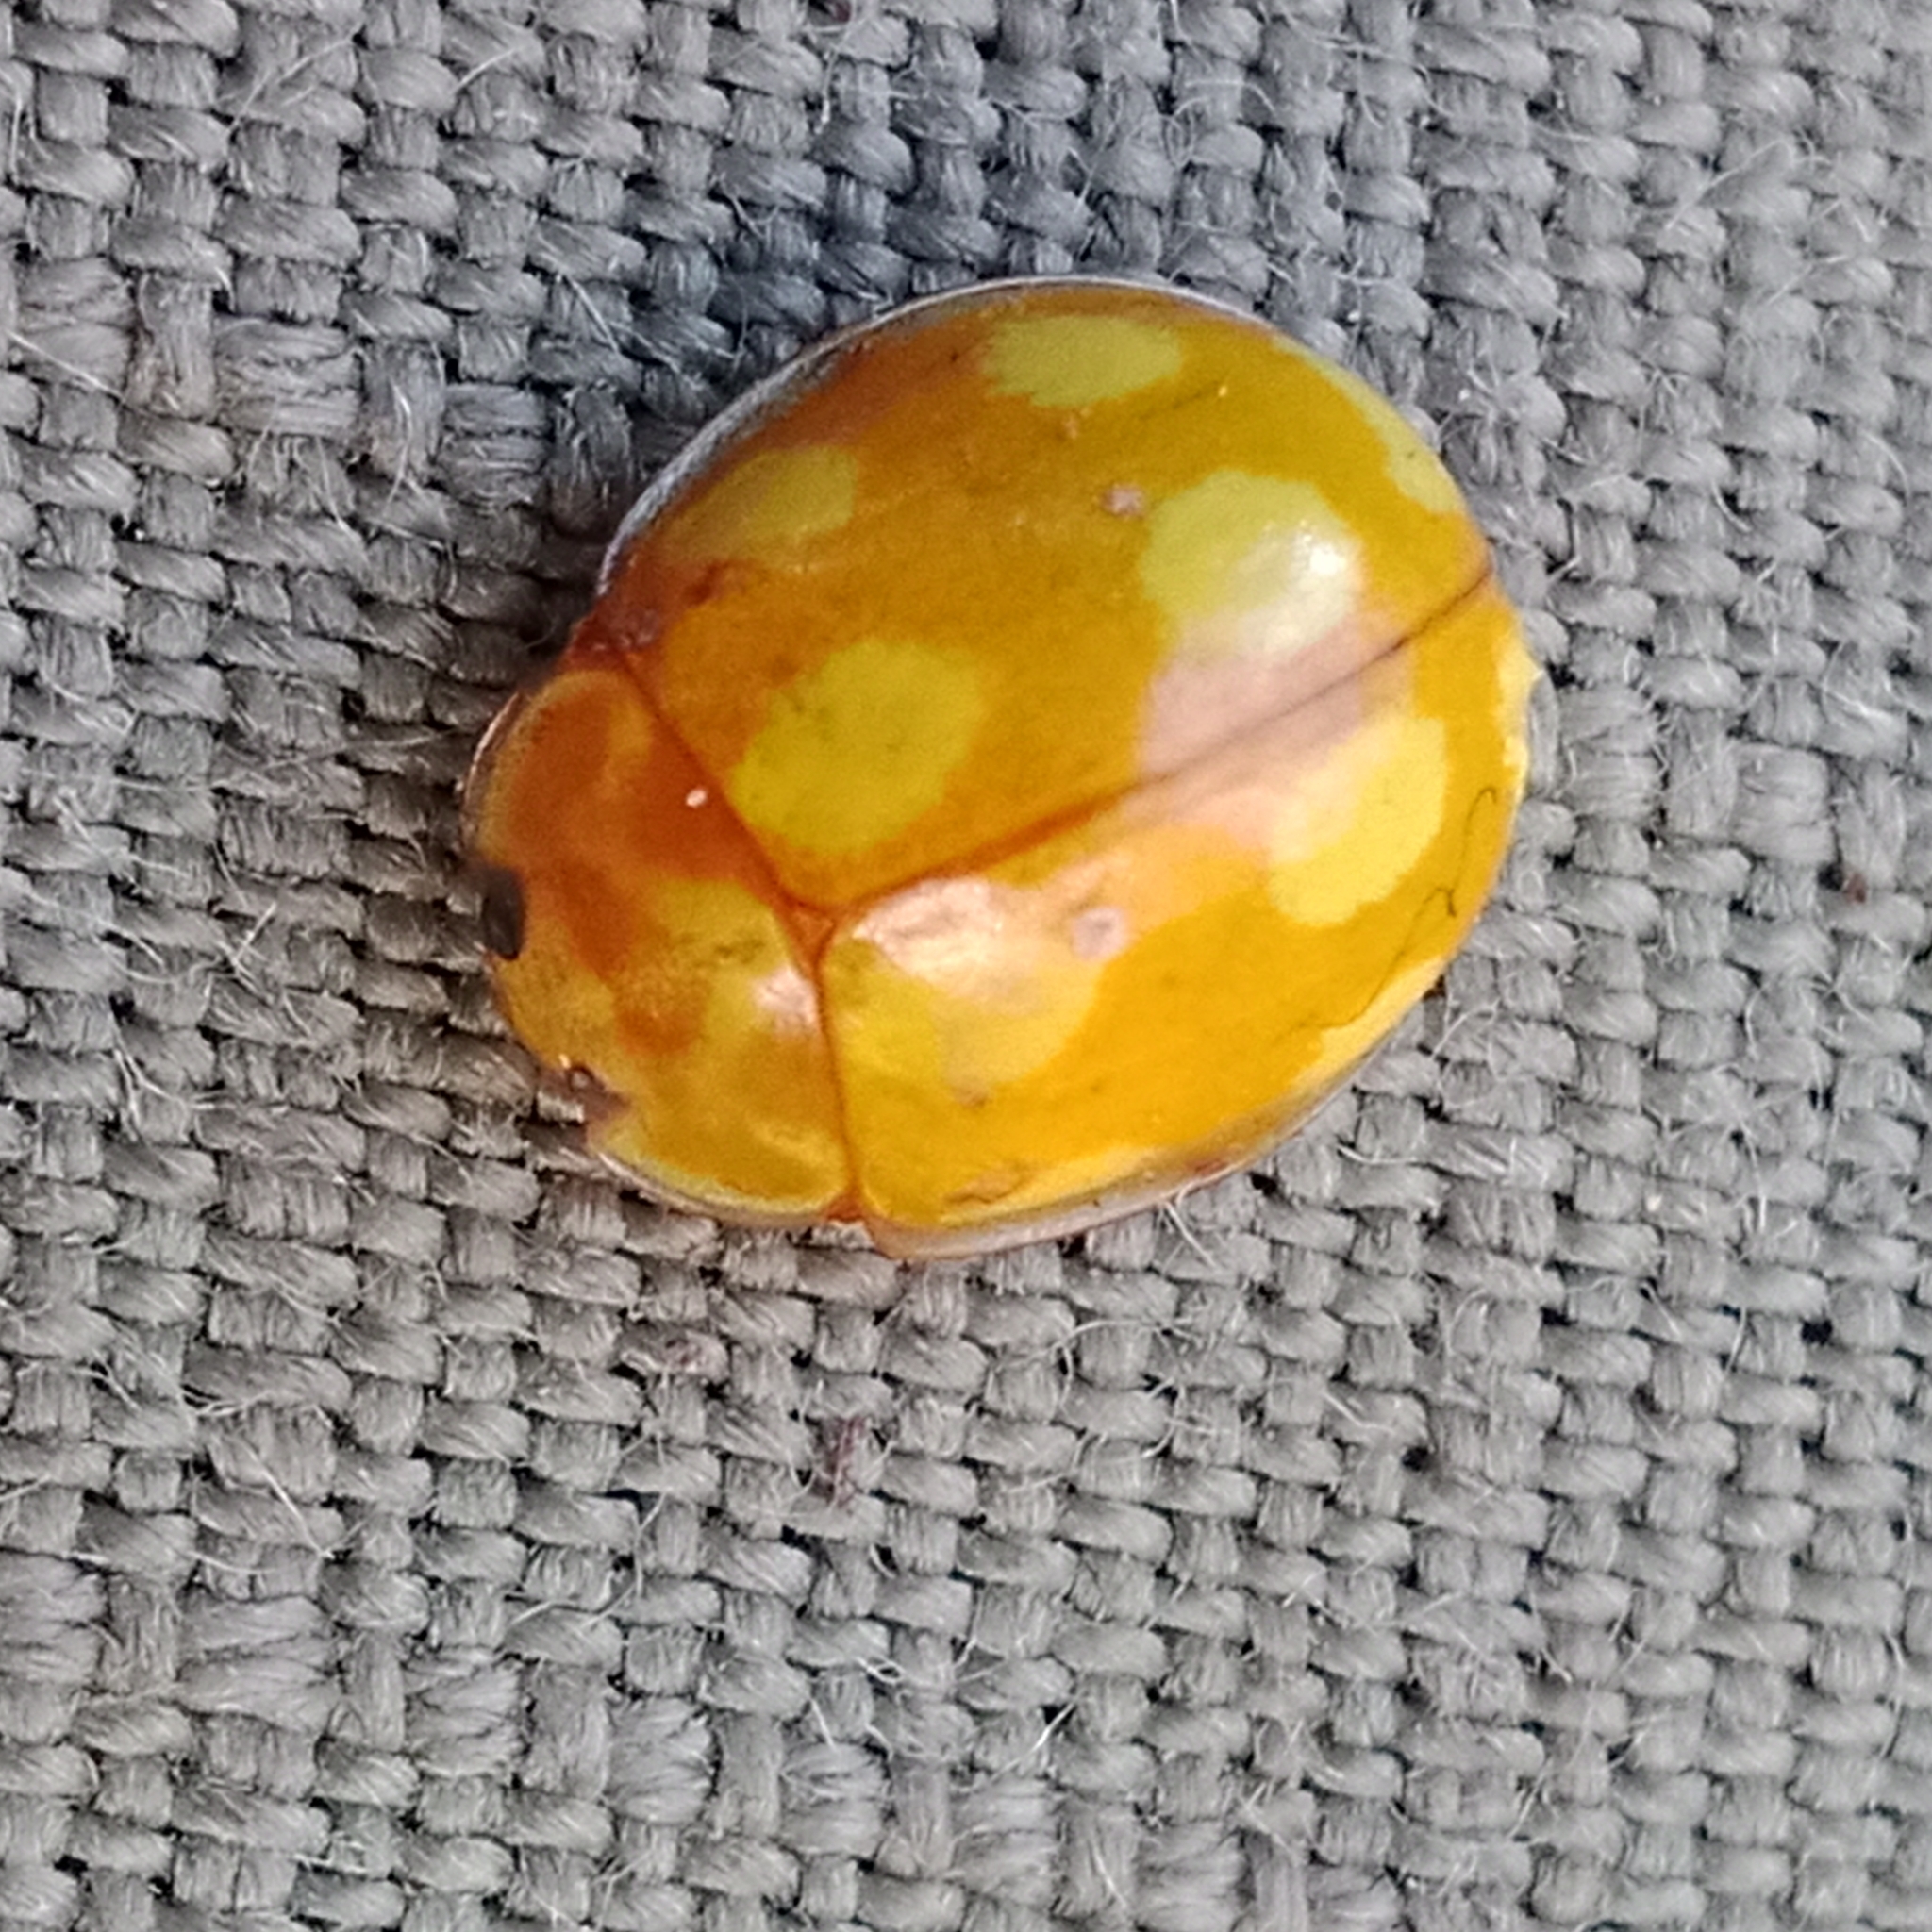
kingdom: Animalia
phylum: Arthropoda
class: Insecta
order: Coleoptera
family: Coccinellidae
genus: Calvia
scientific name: Calvia decemguttata
